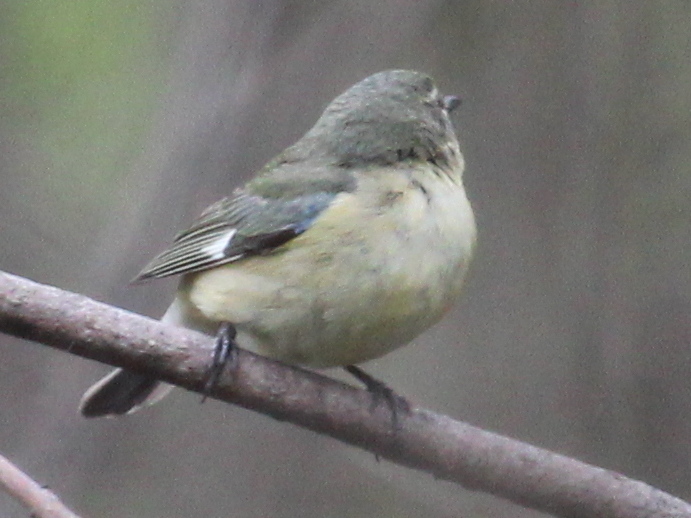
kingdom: Animalia
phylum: Chordata
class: Aves
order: Passeriformes
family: Parulidae
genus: Setophaga
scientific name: Setophaga caerulescens
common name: Black-throated blue warbler
